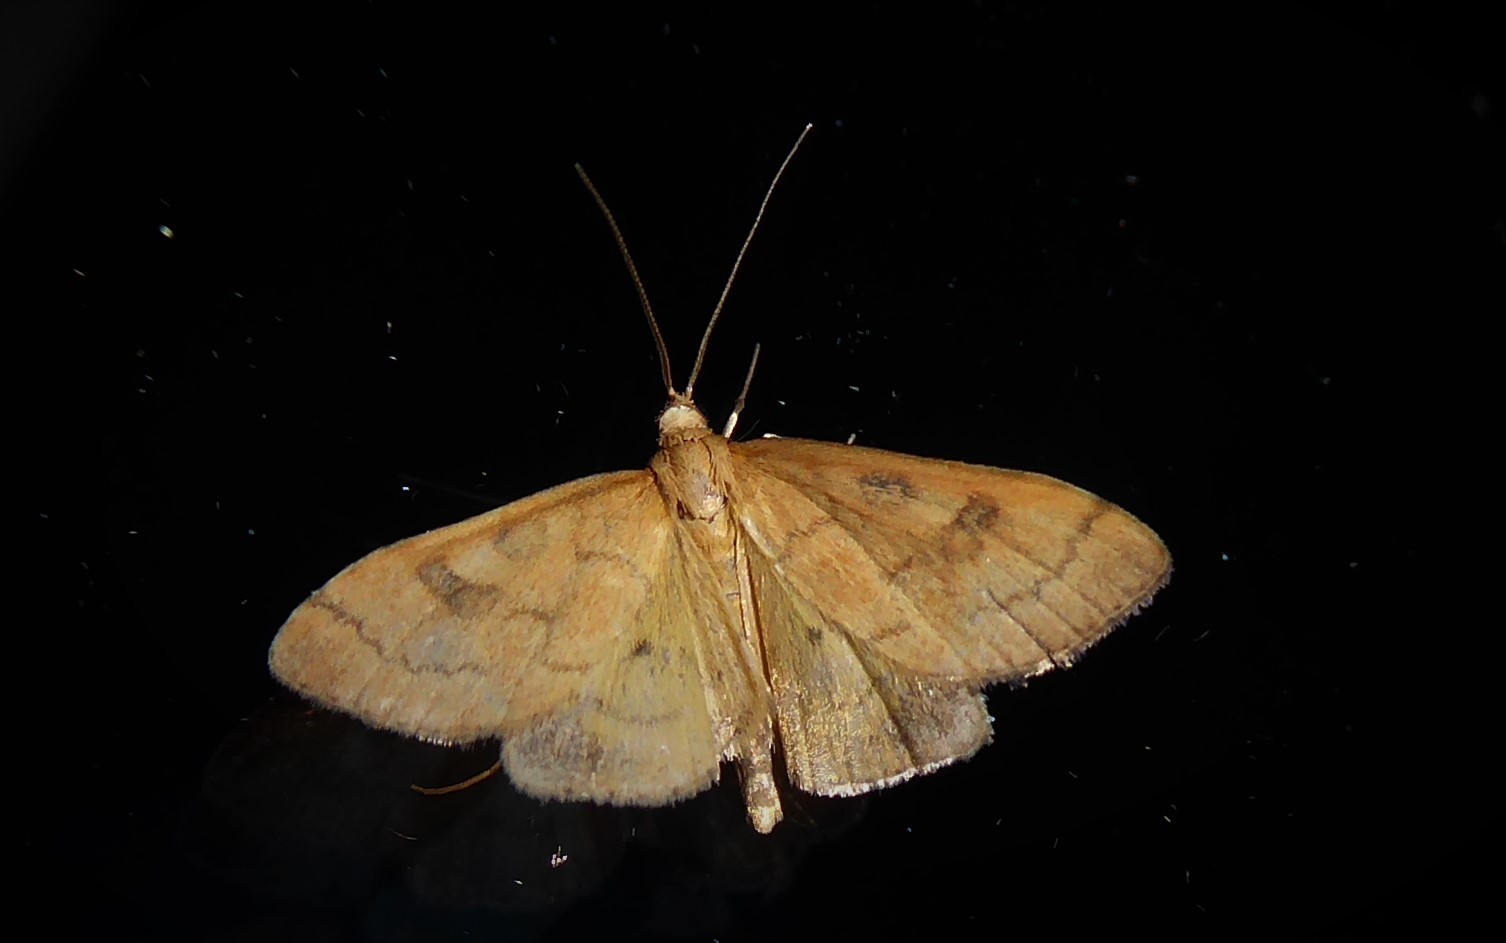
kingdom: Animalia
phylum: Arthropoda
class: Insecta
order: Lepidoptera
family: Crambidae
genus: Udea
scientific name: Udea Mnesictena flavidalis
